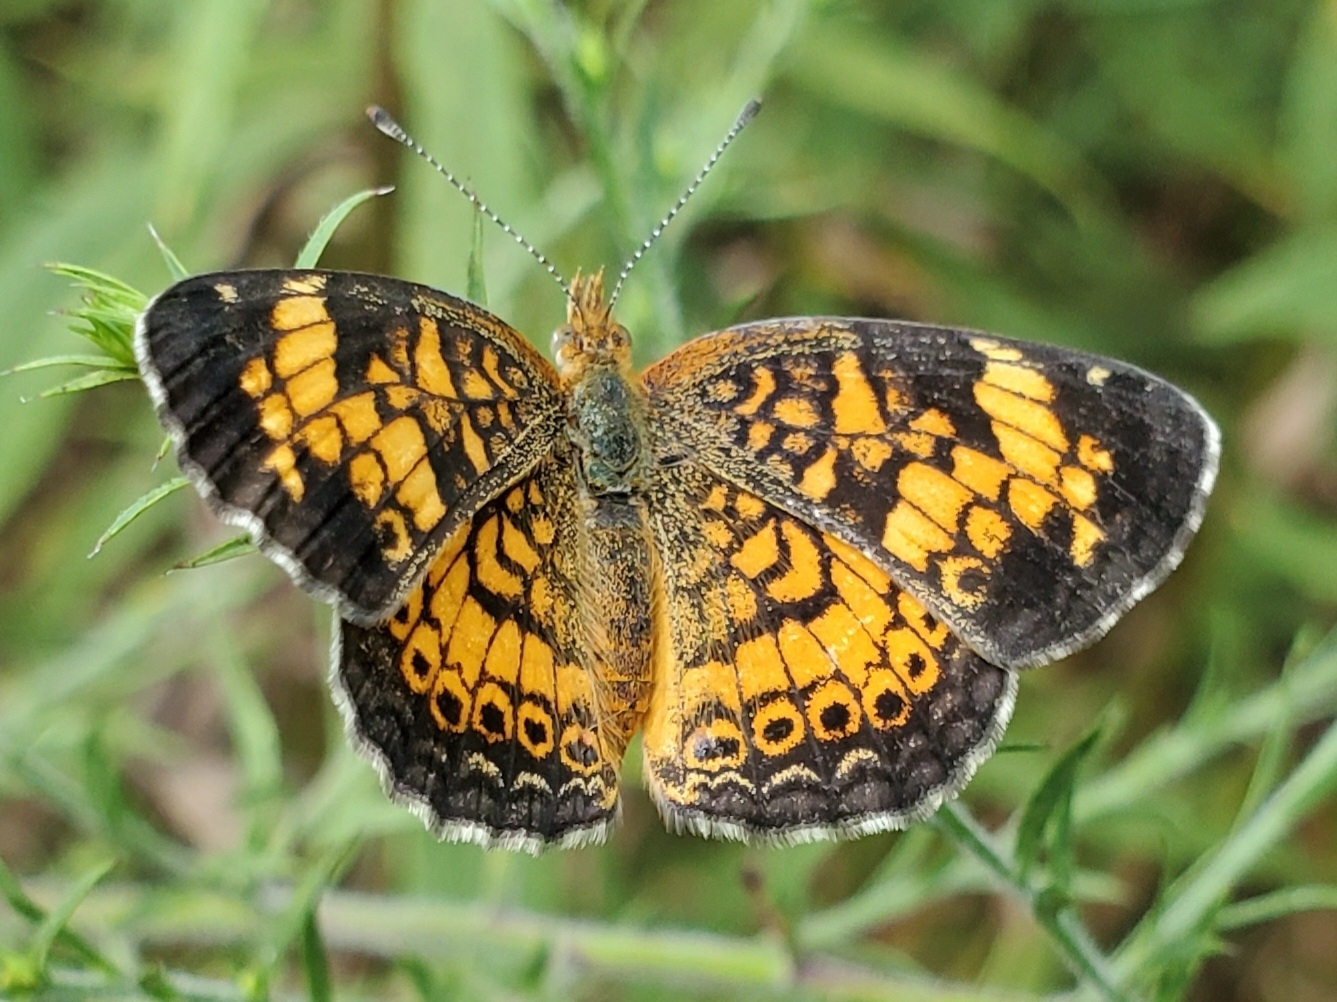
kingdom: Animalia
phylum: Arthropoda
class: Insecta
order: Lepidoptera
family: Nymphalidae
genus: Phyciodes
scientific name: Phyciodes tharos
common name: Pearl crescent
